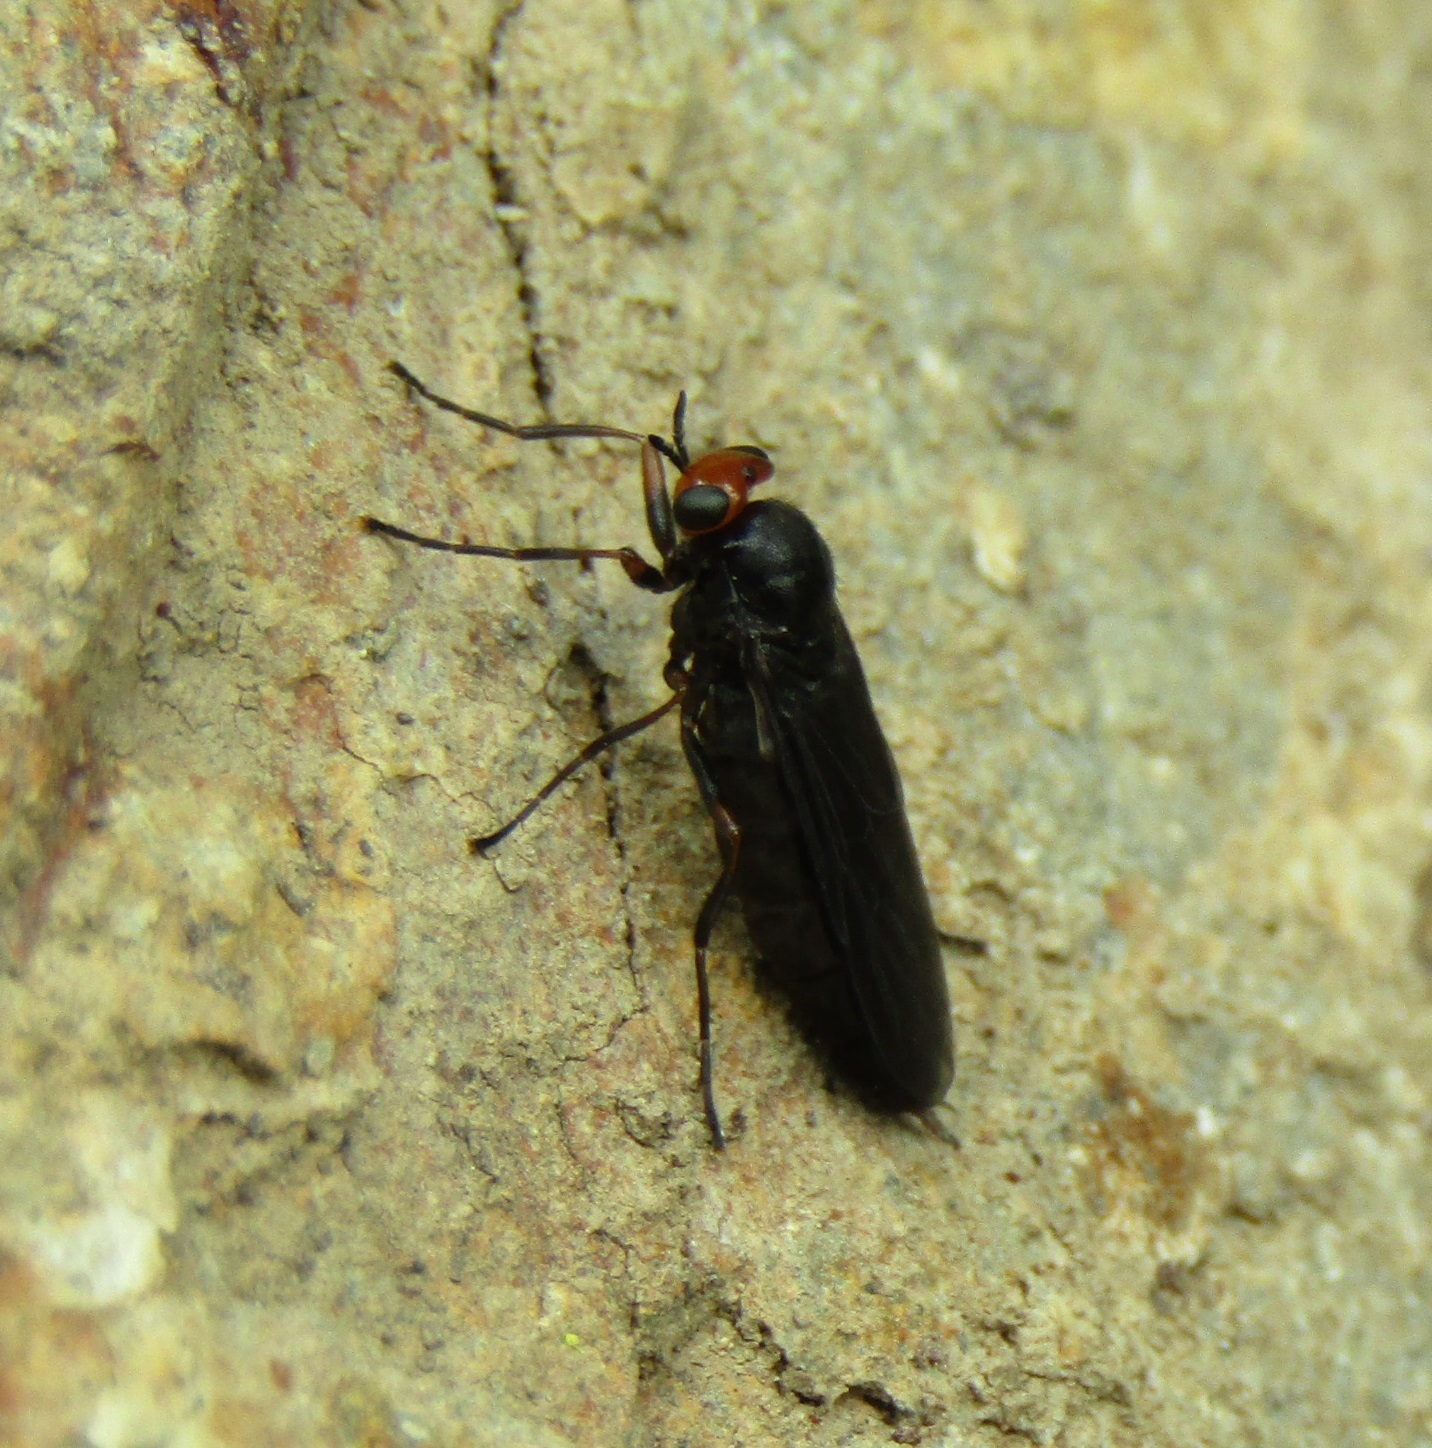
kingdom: Animalia
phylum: Arthropoda
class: Insecta
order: Diptera
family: Stratiomyidae
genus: Inopus
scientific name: Inopus rubriceps
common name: Soldier fly
